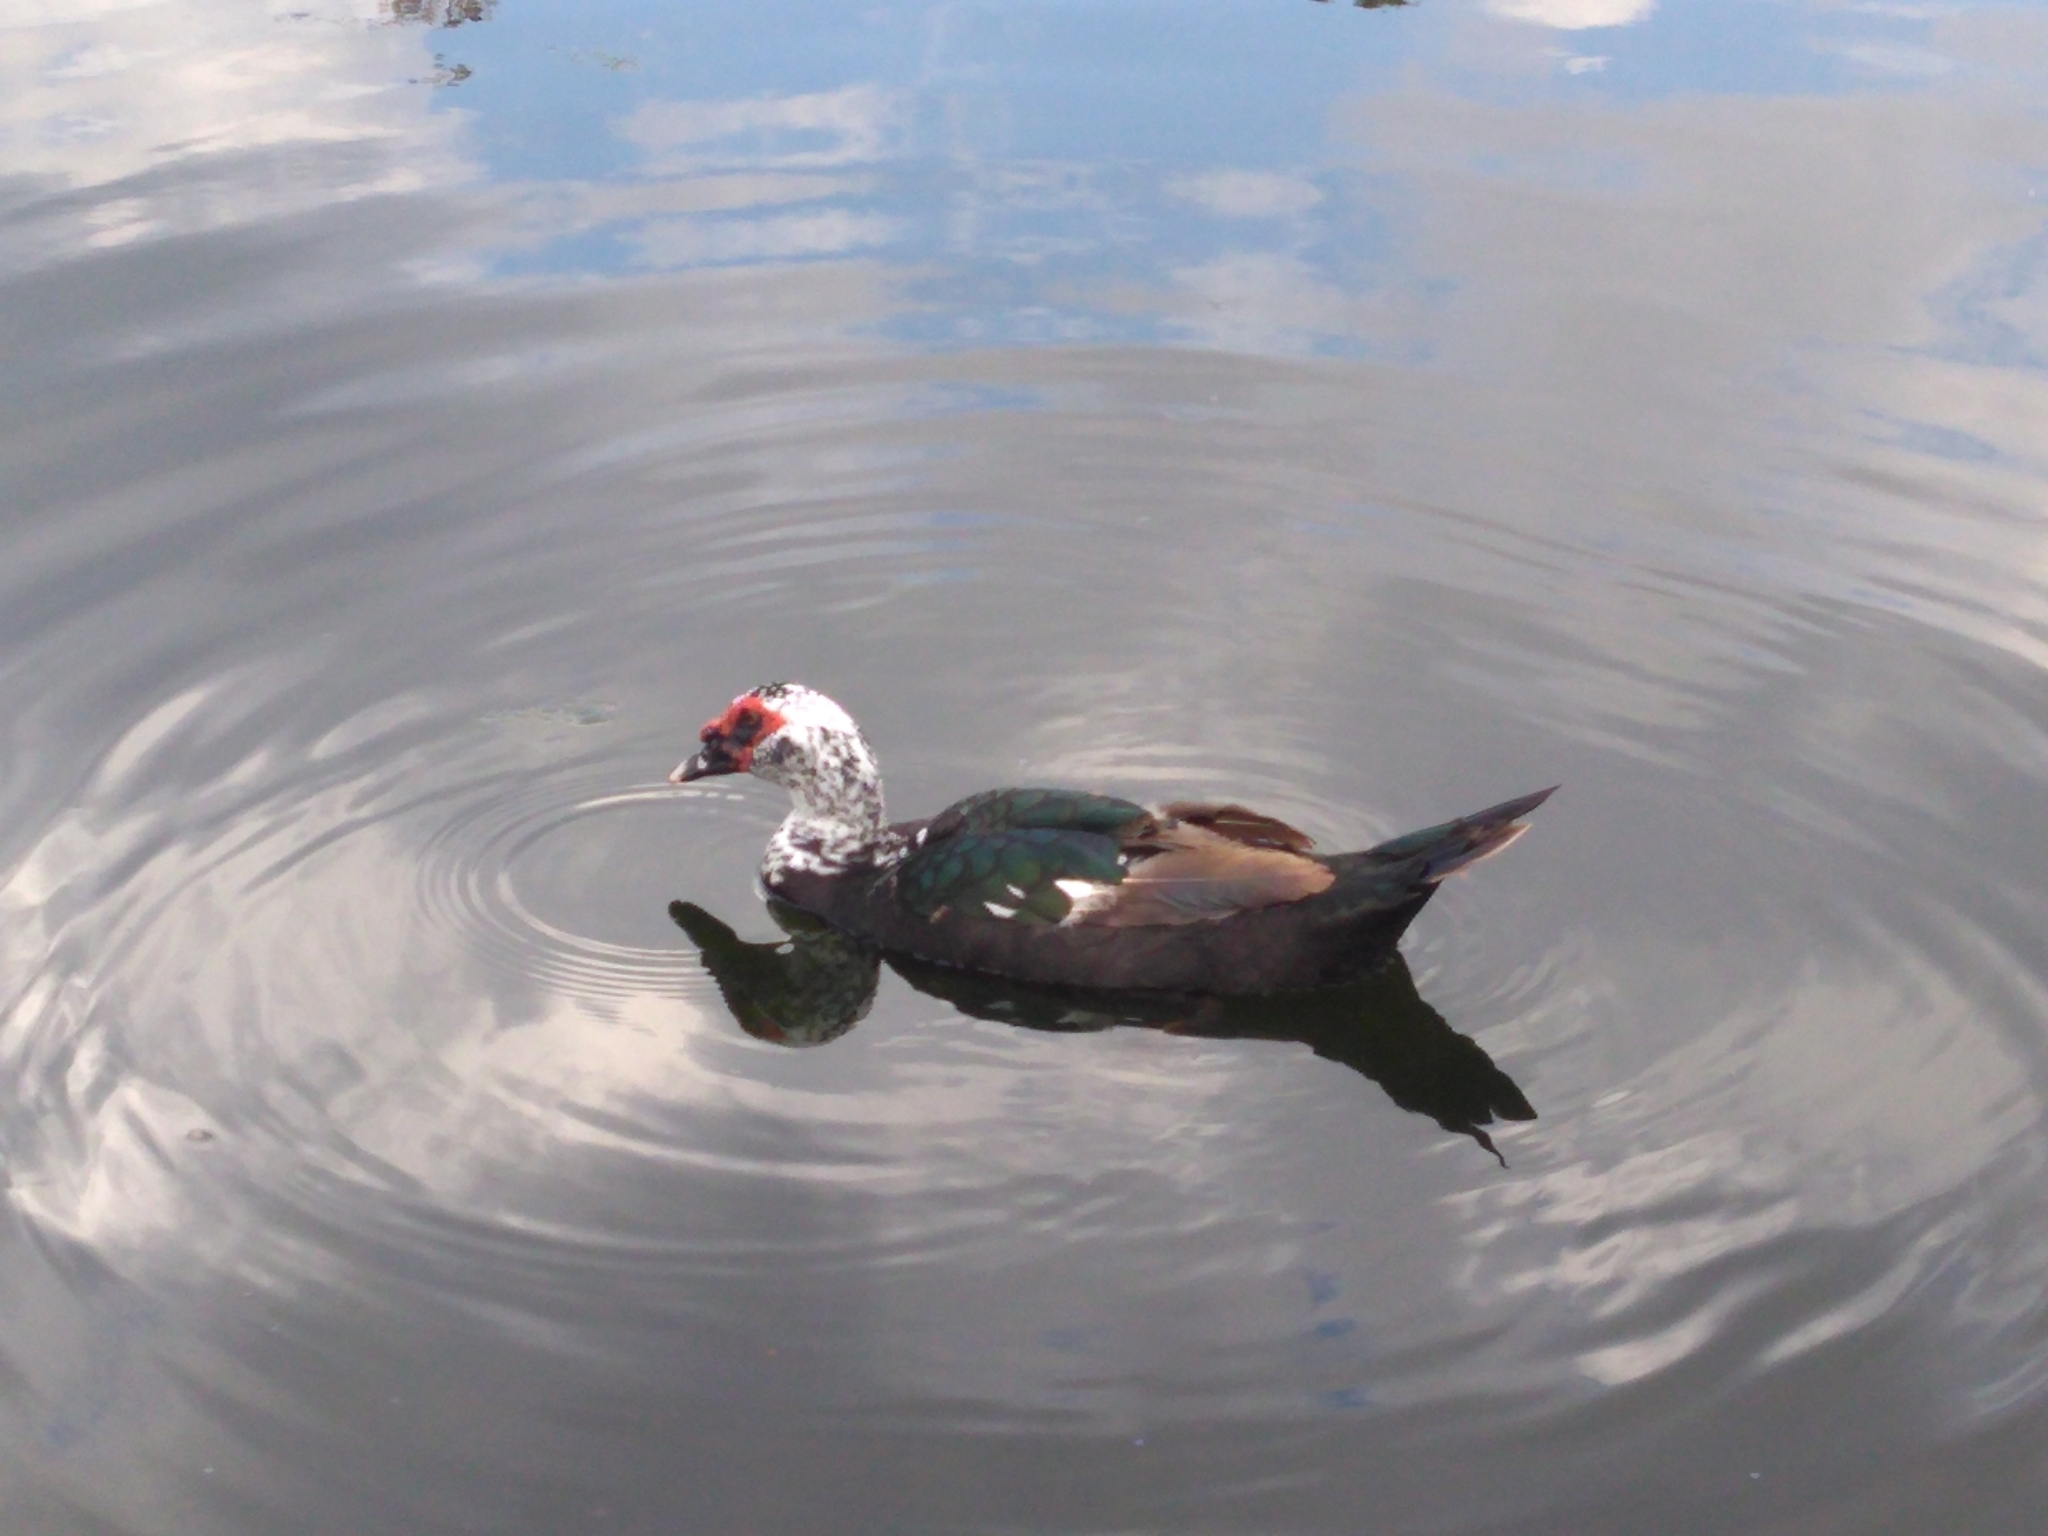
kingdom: Animalia
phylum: Chordata
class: Aves
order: Anseriformes
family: Anatidae
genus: Cairina
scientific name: Cairina moschata
